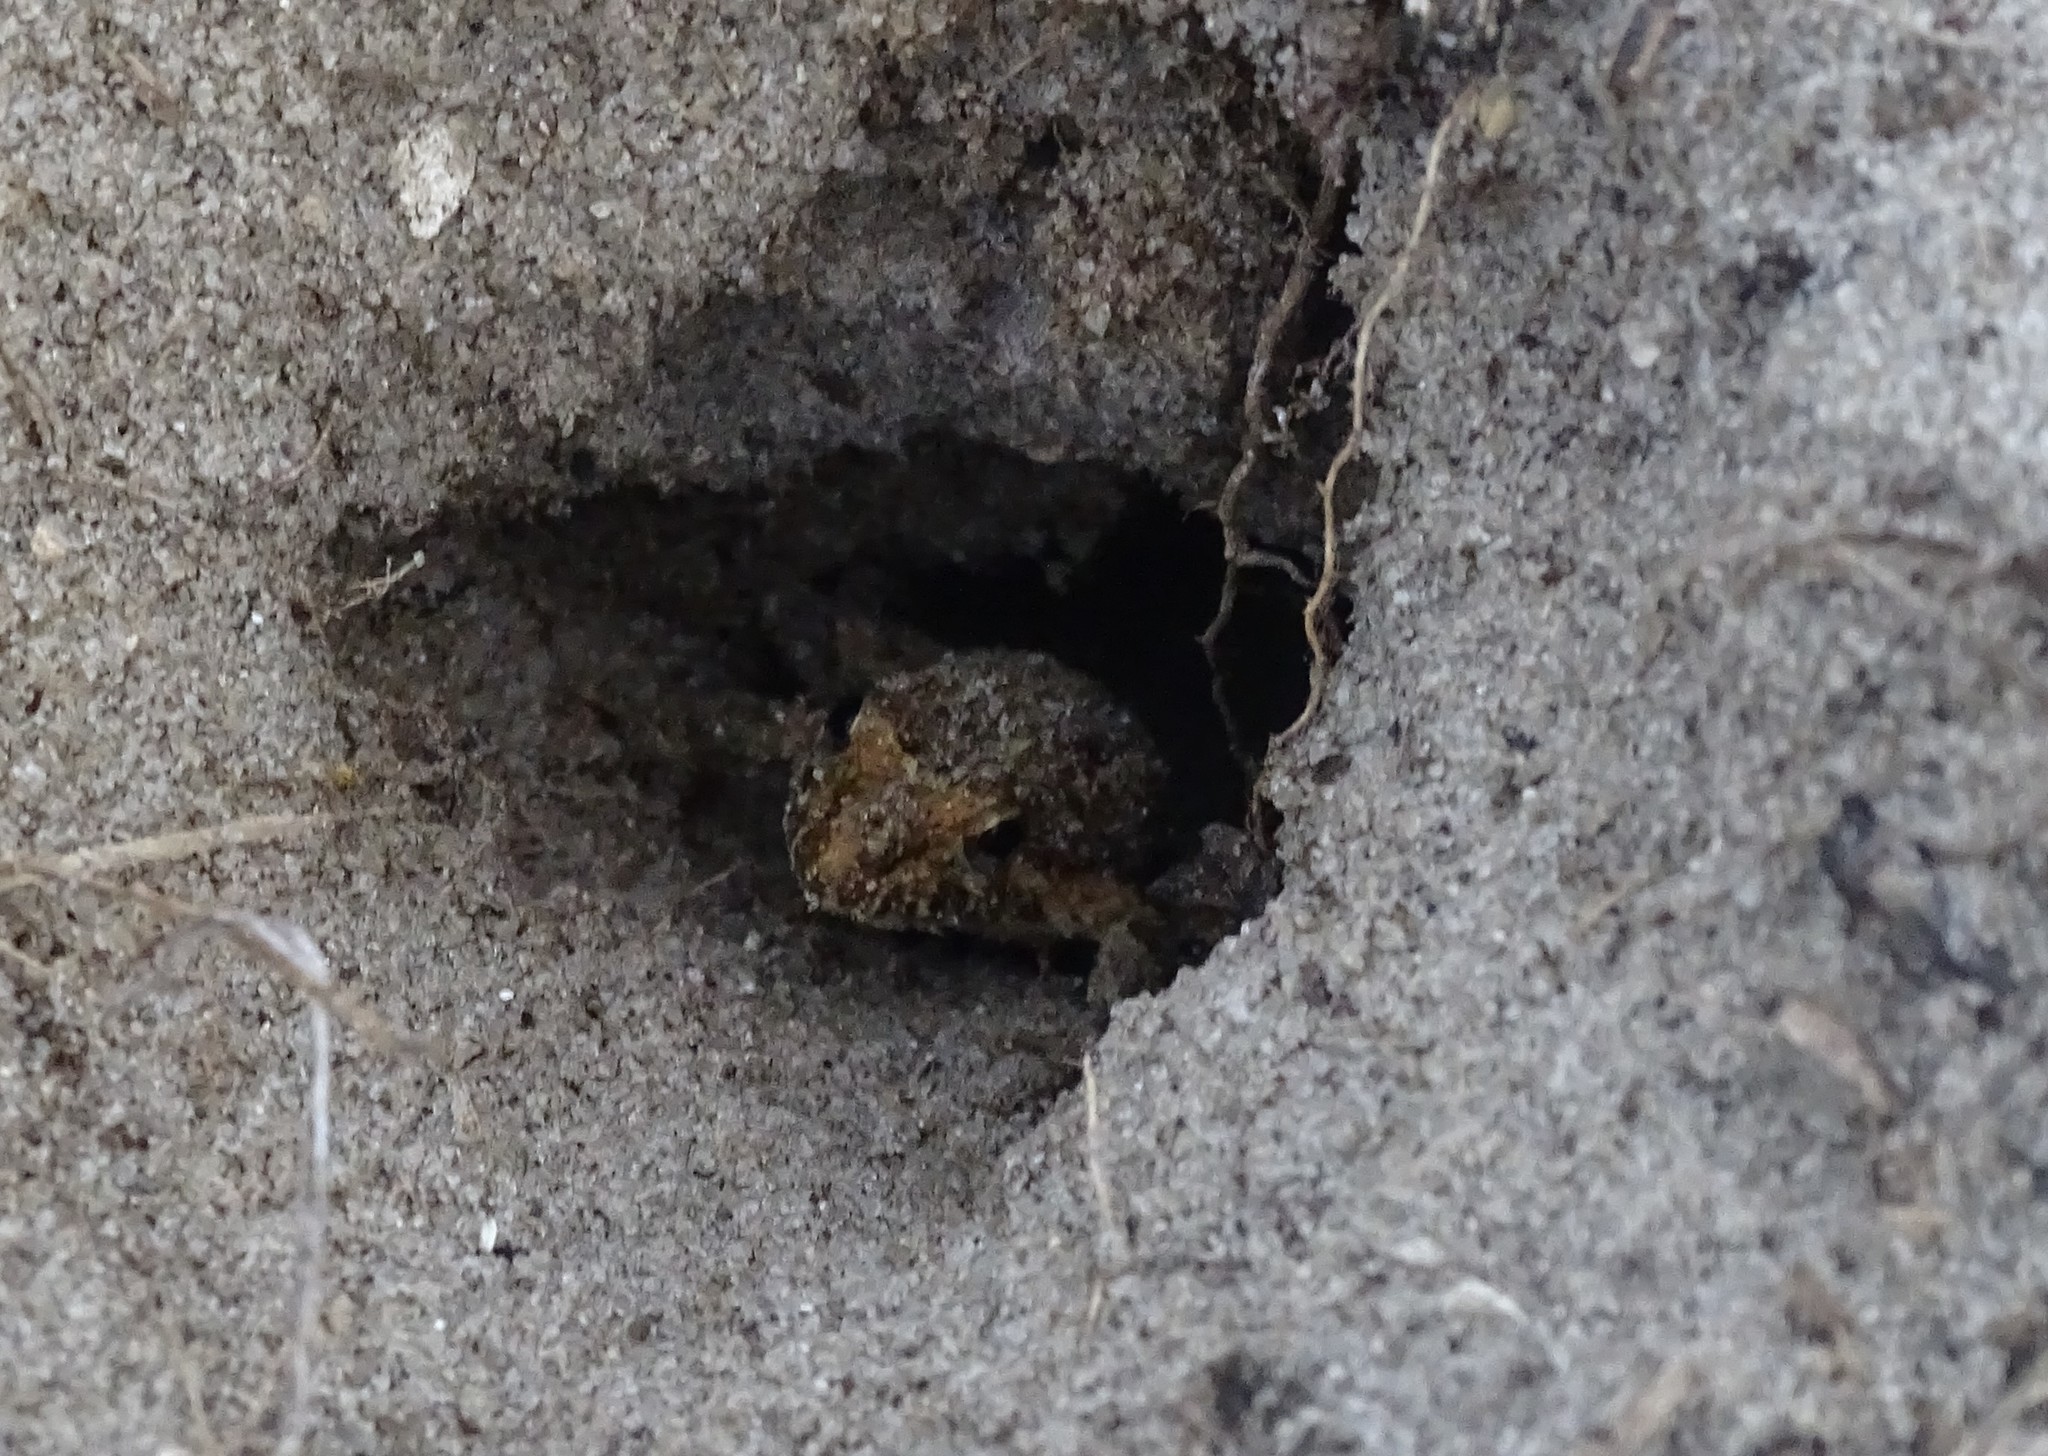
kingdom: Animalia
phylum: Chordata
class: Amphibia
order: Anura
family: Eleutherodactylidae
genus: Eleutherodactylus
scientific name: Eleutherodactylus planirostris
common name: Greenhouse frog
